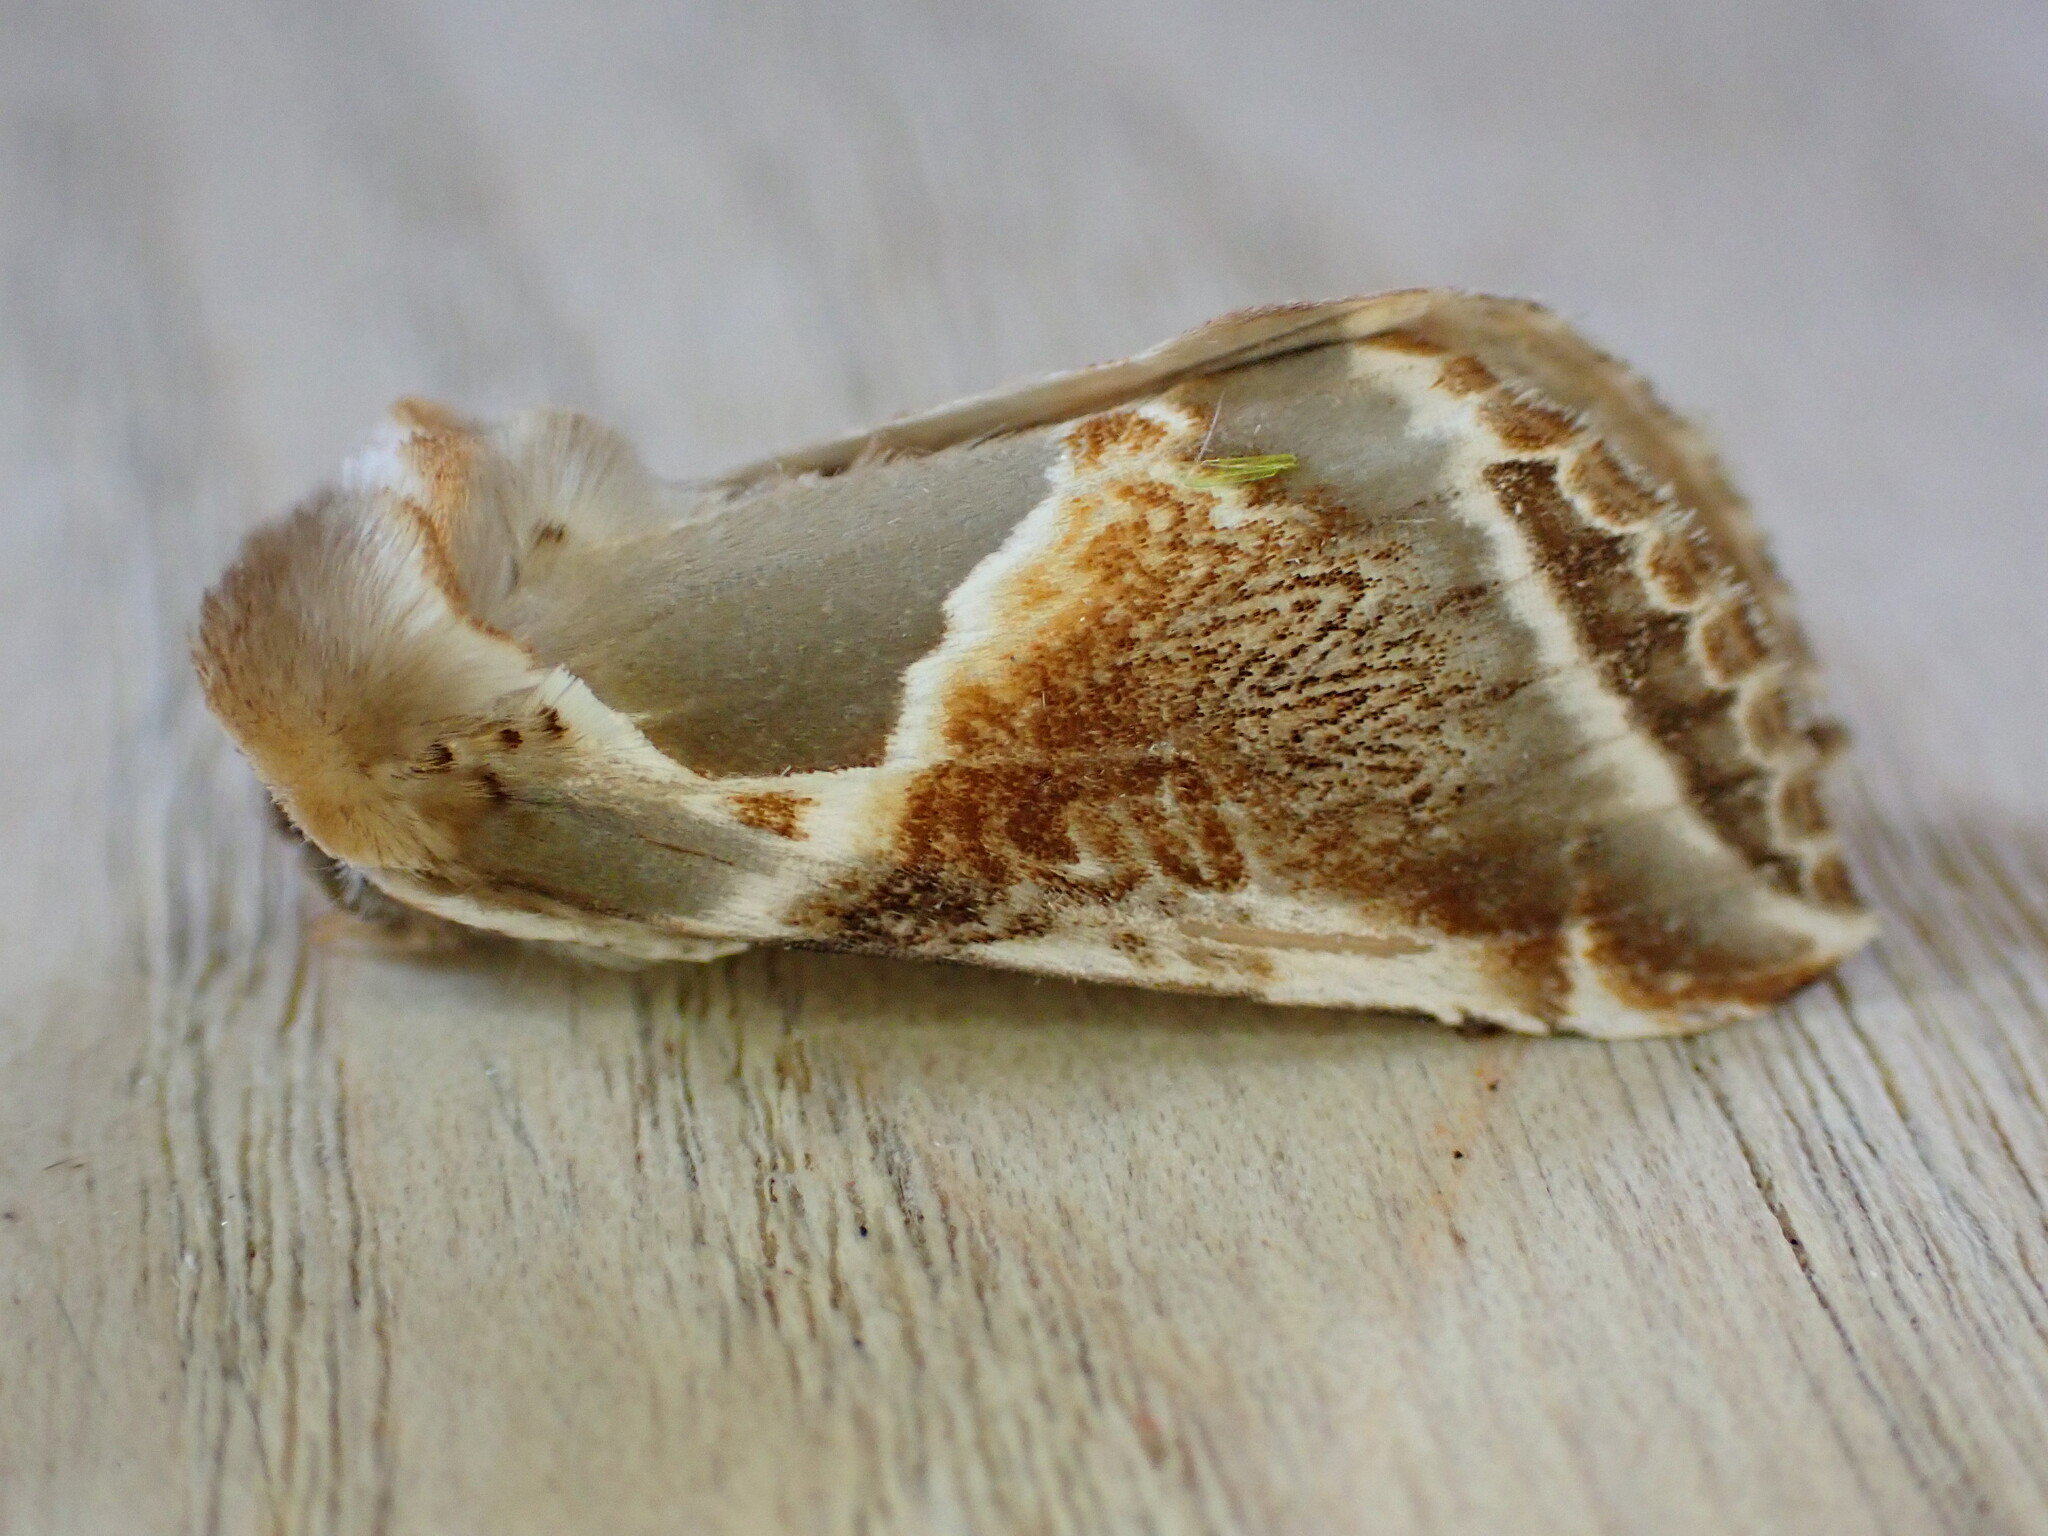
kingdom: Animalia
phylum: Arthropoda
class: Insecta
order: Lepidoptera
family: Drepanidae
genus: Habrosyne
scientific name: Habrosyne pyritoides
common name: Buff arches
